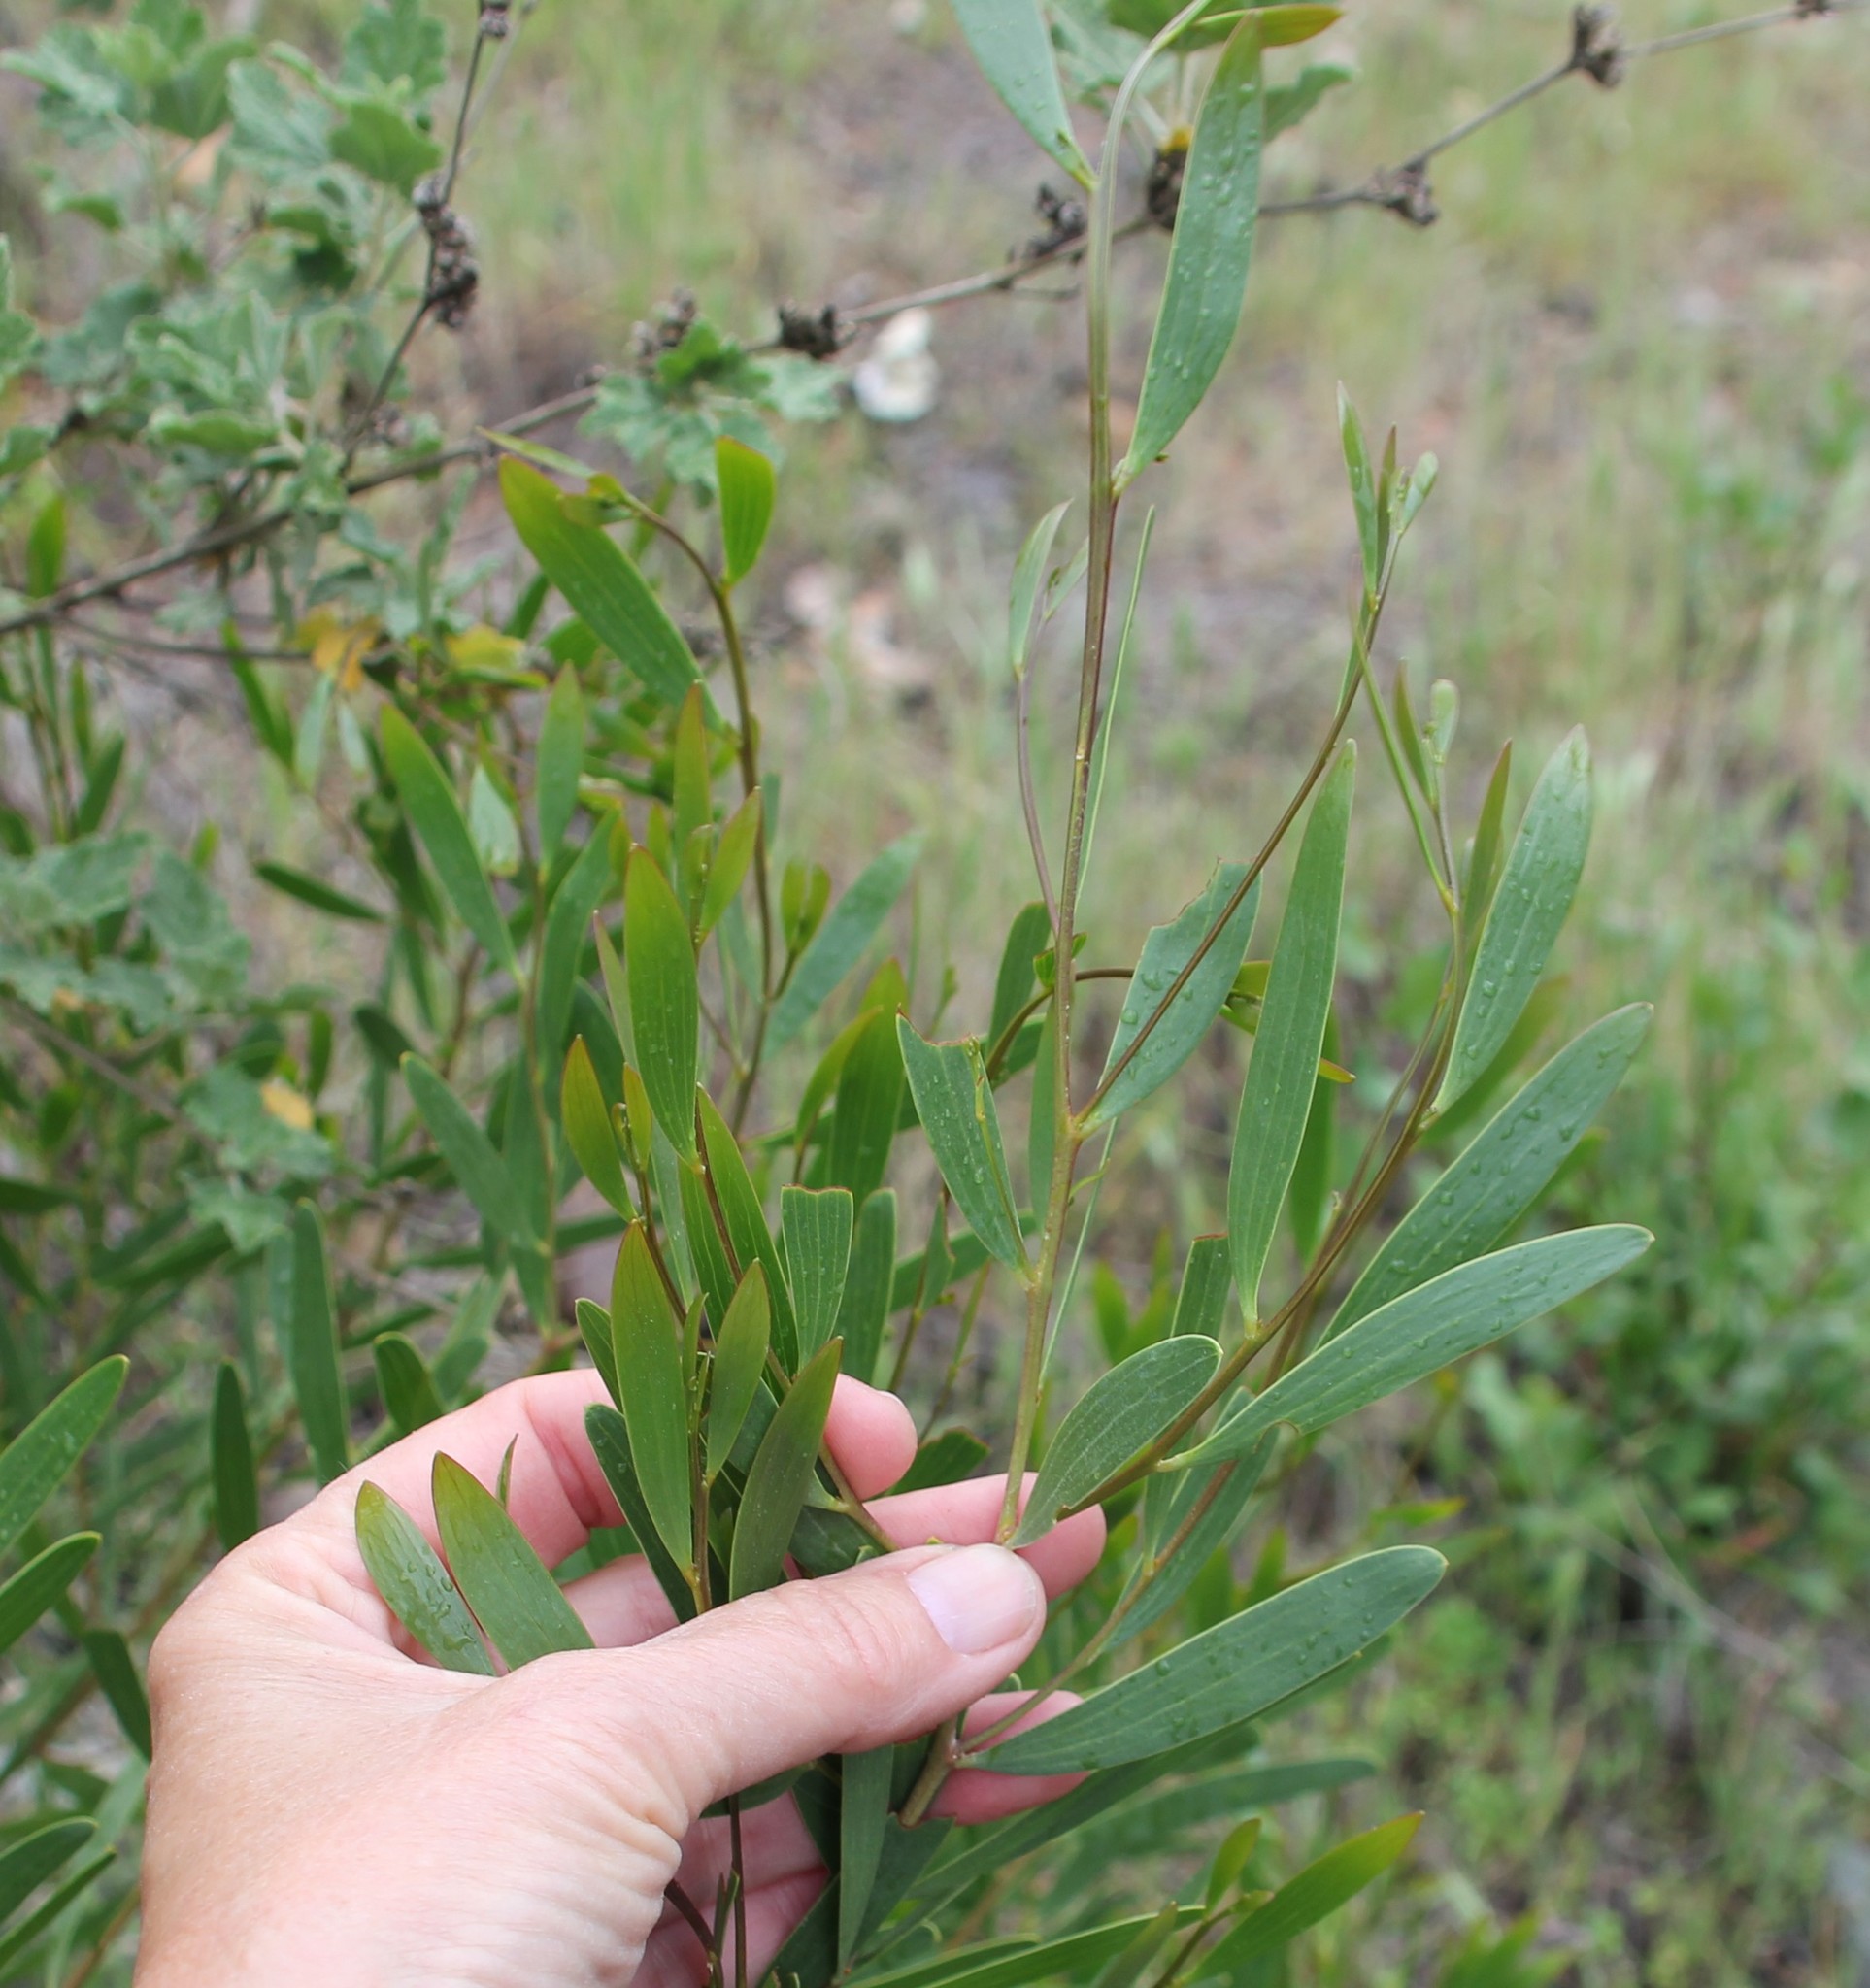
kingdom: Plantae
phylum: Tracheophyta
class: Magnoliopsida
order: Fabales
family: Fabaceae
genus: Acacia
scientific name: Acacia cyclops
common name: Coastal wattle
